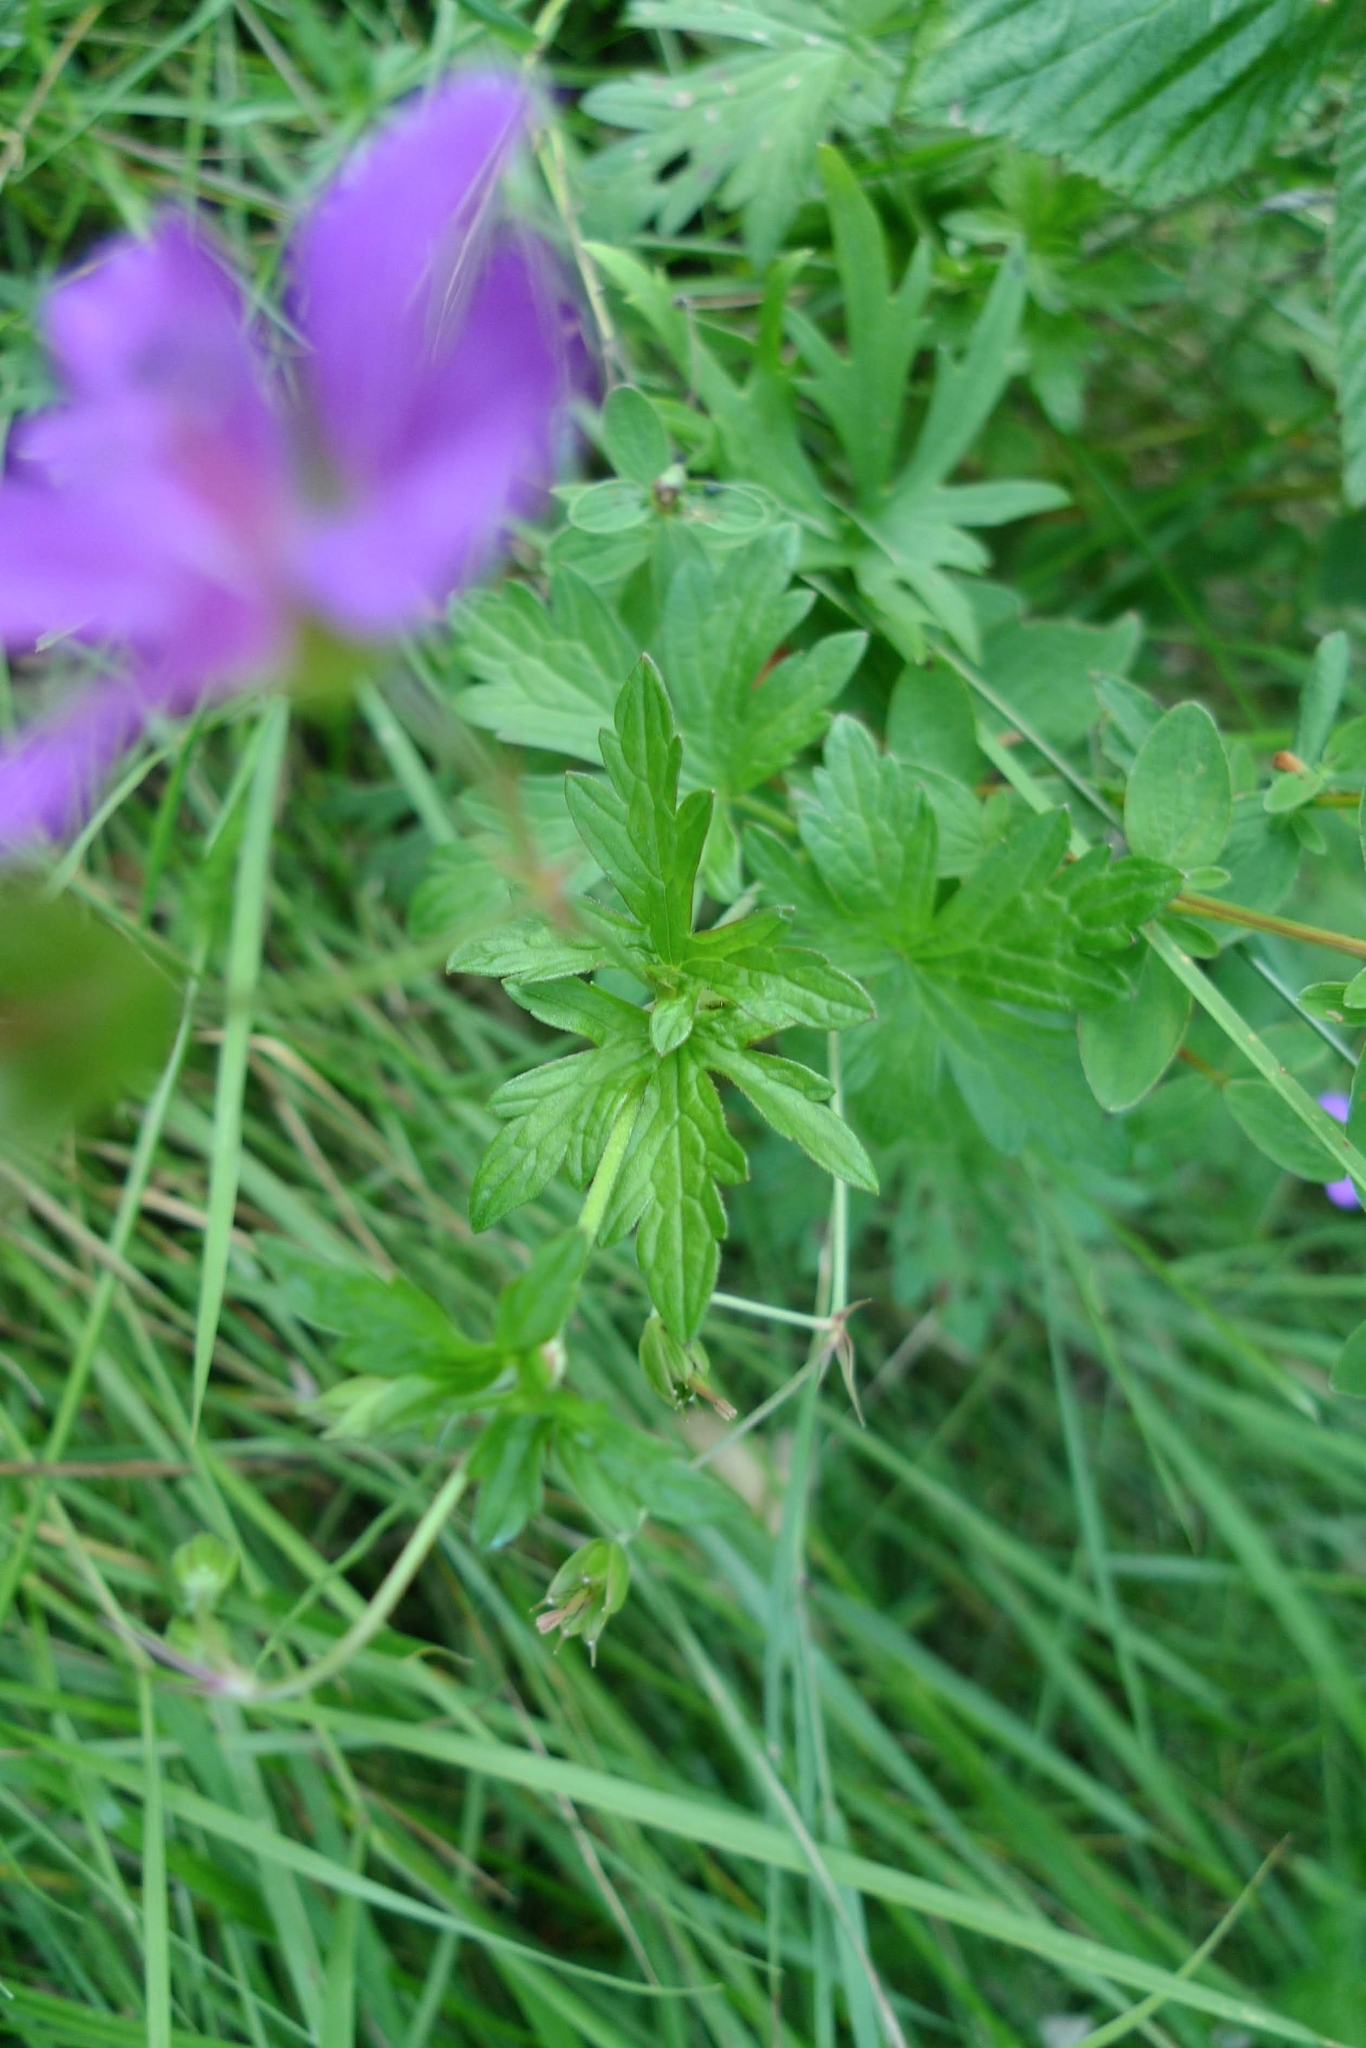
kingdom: Plantae
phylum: Tracheophyta
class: Magnoliopsida
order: Geraniales
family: Geraniaceae
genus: Geranium
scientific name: Geranium palustre
